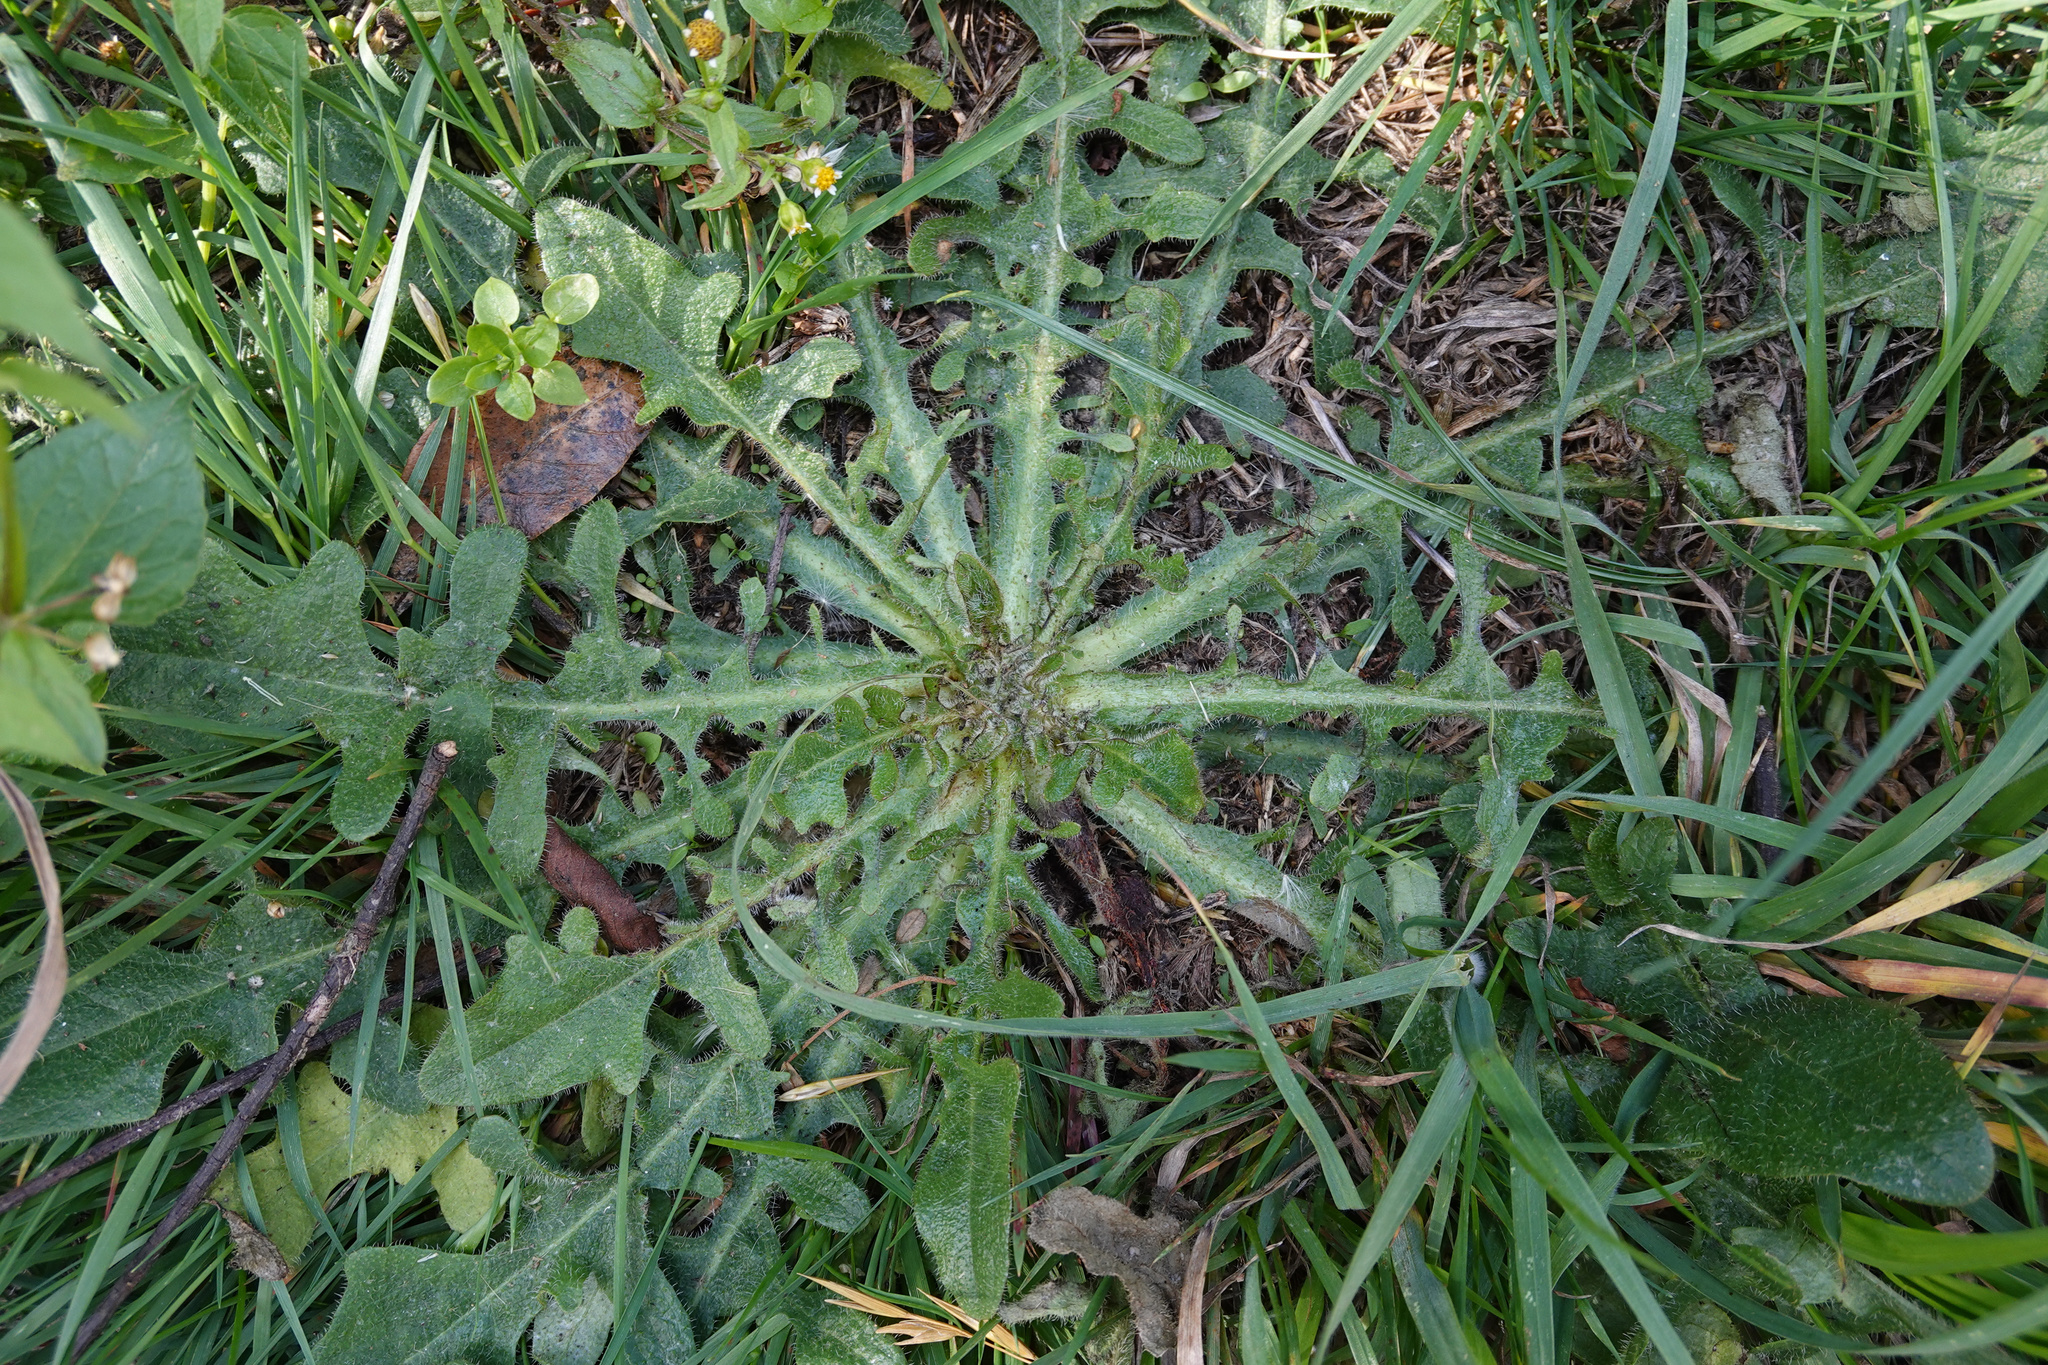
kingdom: Plantae
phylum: Tracheophyta
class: Magnoliopsida
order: Asterales
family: Asteraceae
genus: Hypochaeris
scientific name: Hypochaeris radicata
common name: Flatweed
